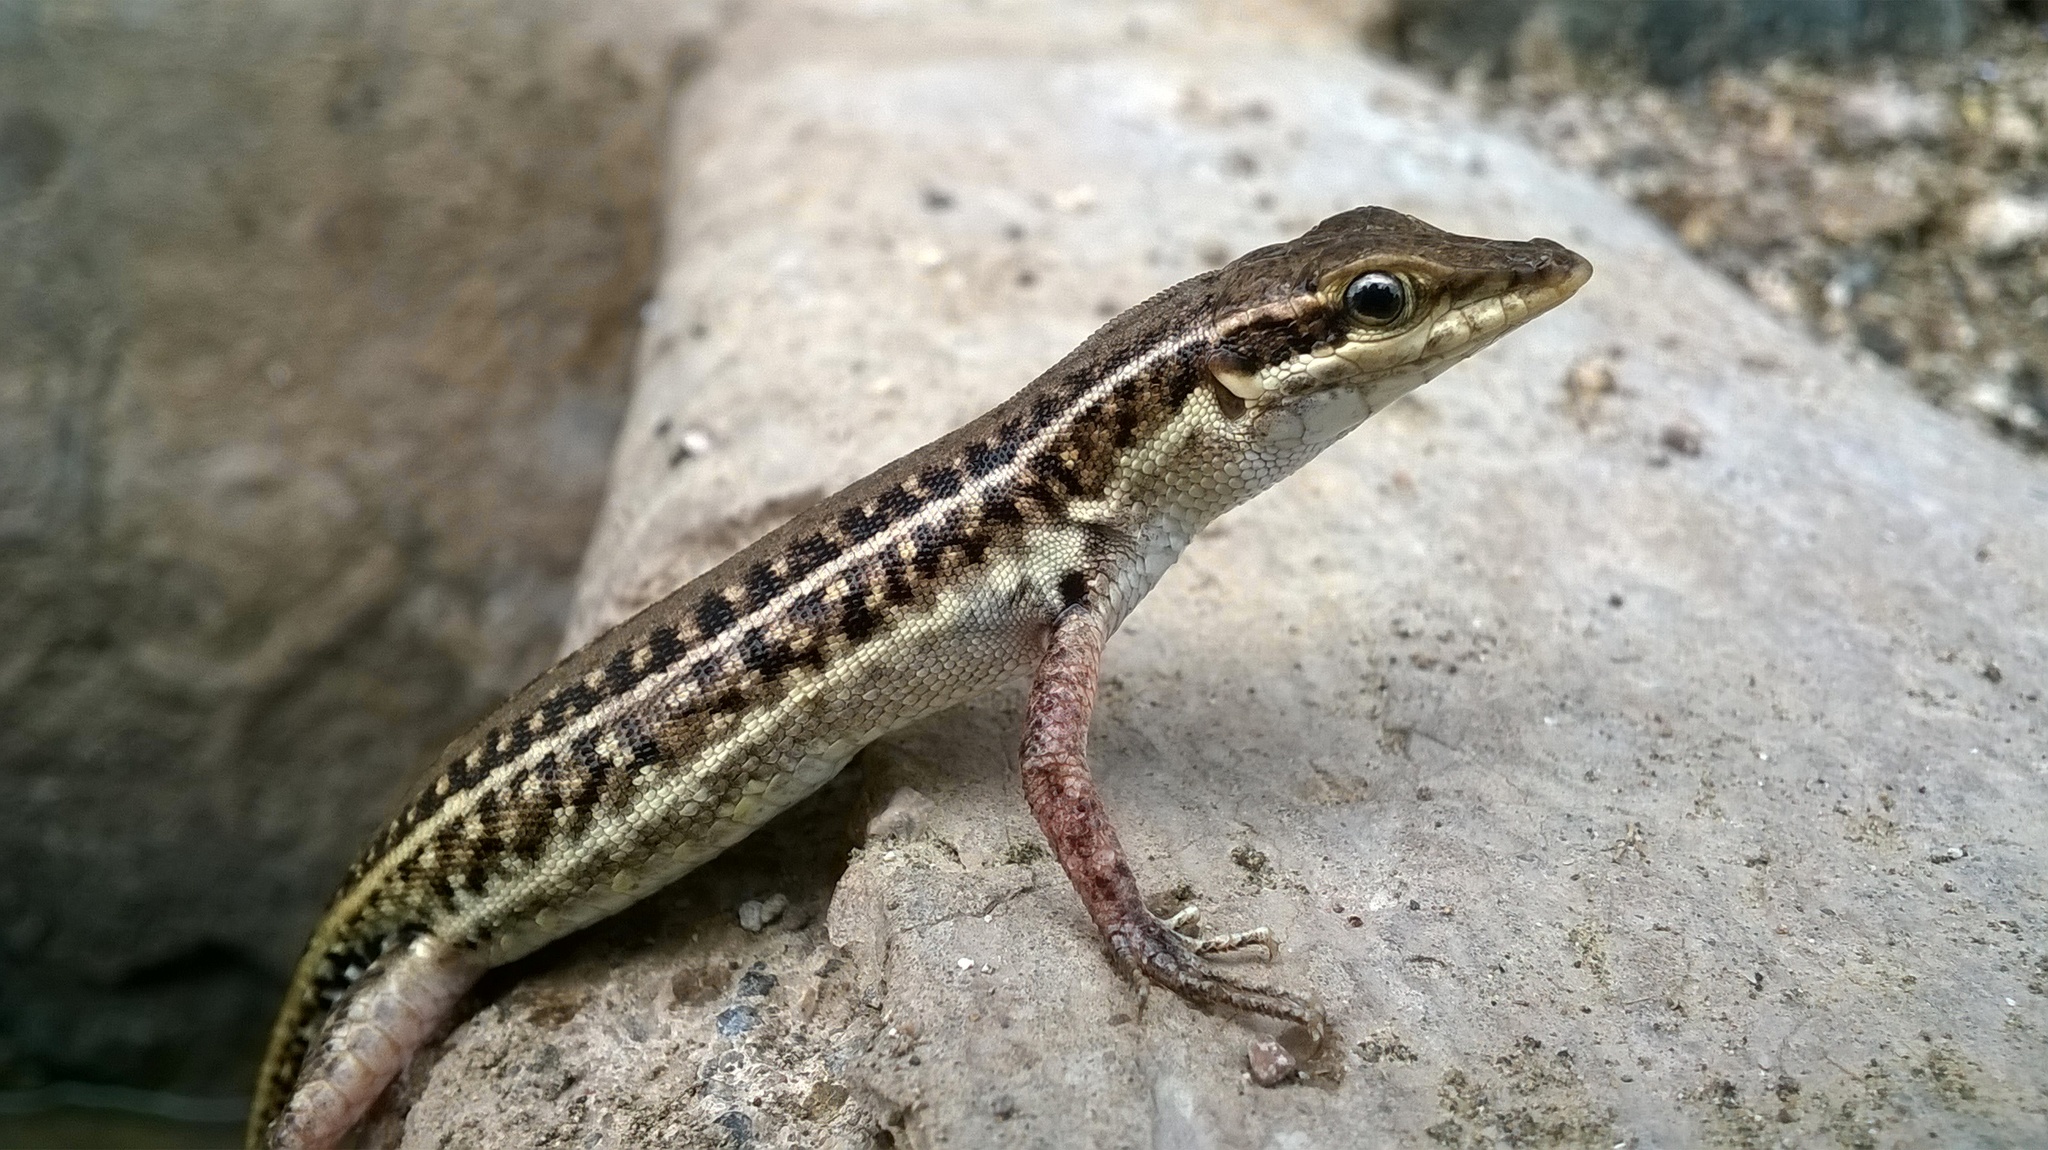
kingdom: Animalia
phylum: Chordata
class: Squamata
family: Lacertidae
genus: Ophisops
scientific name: Ophisops kutchensis
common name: Kutch small-scaled snake-eye
